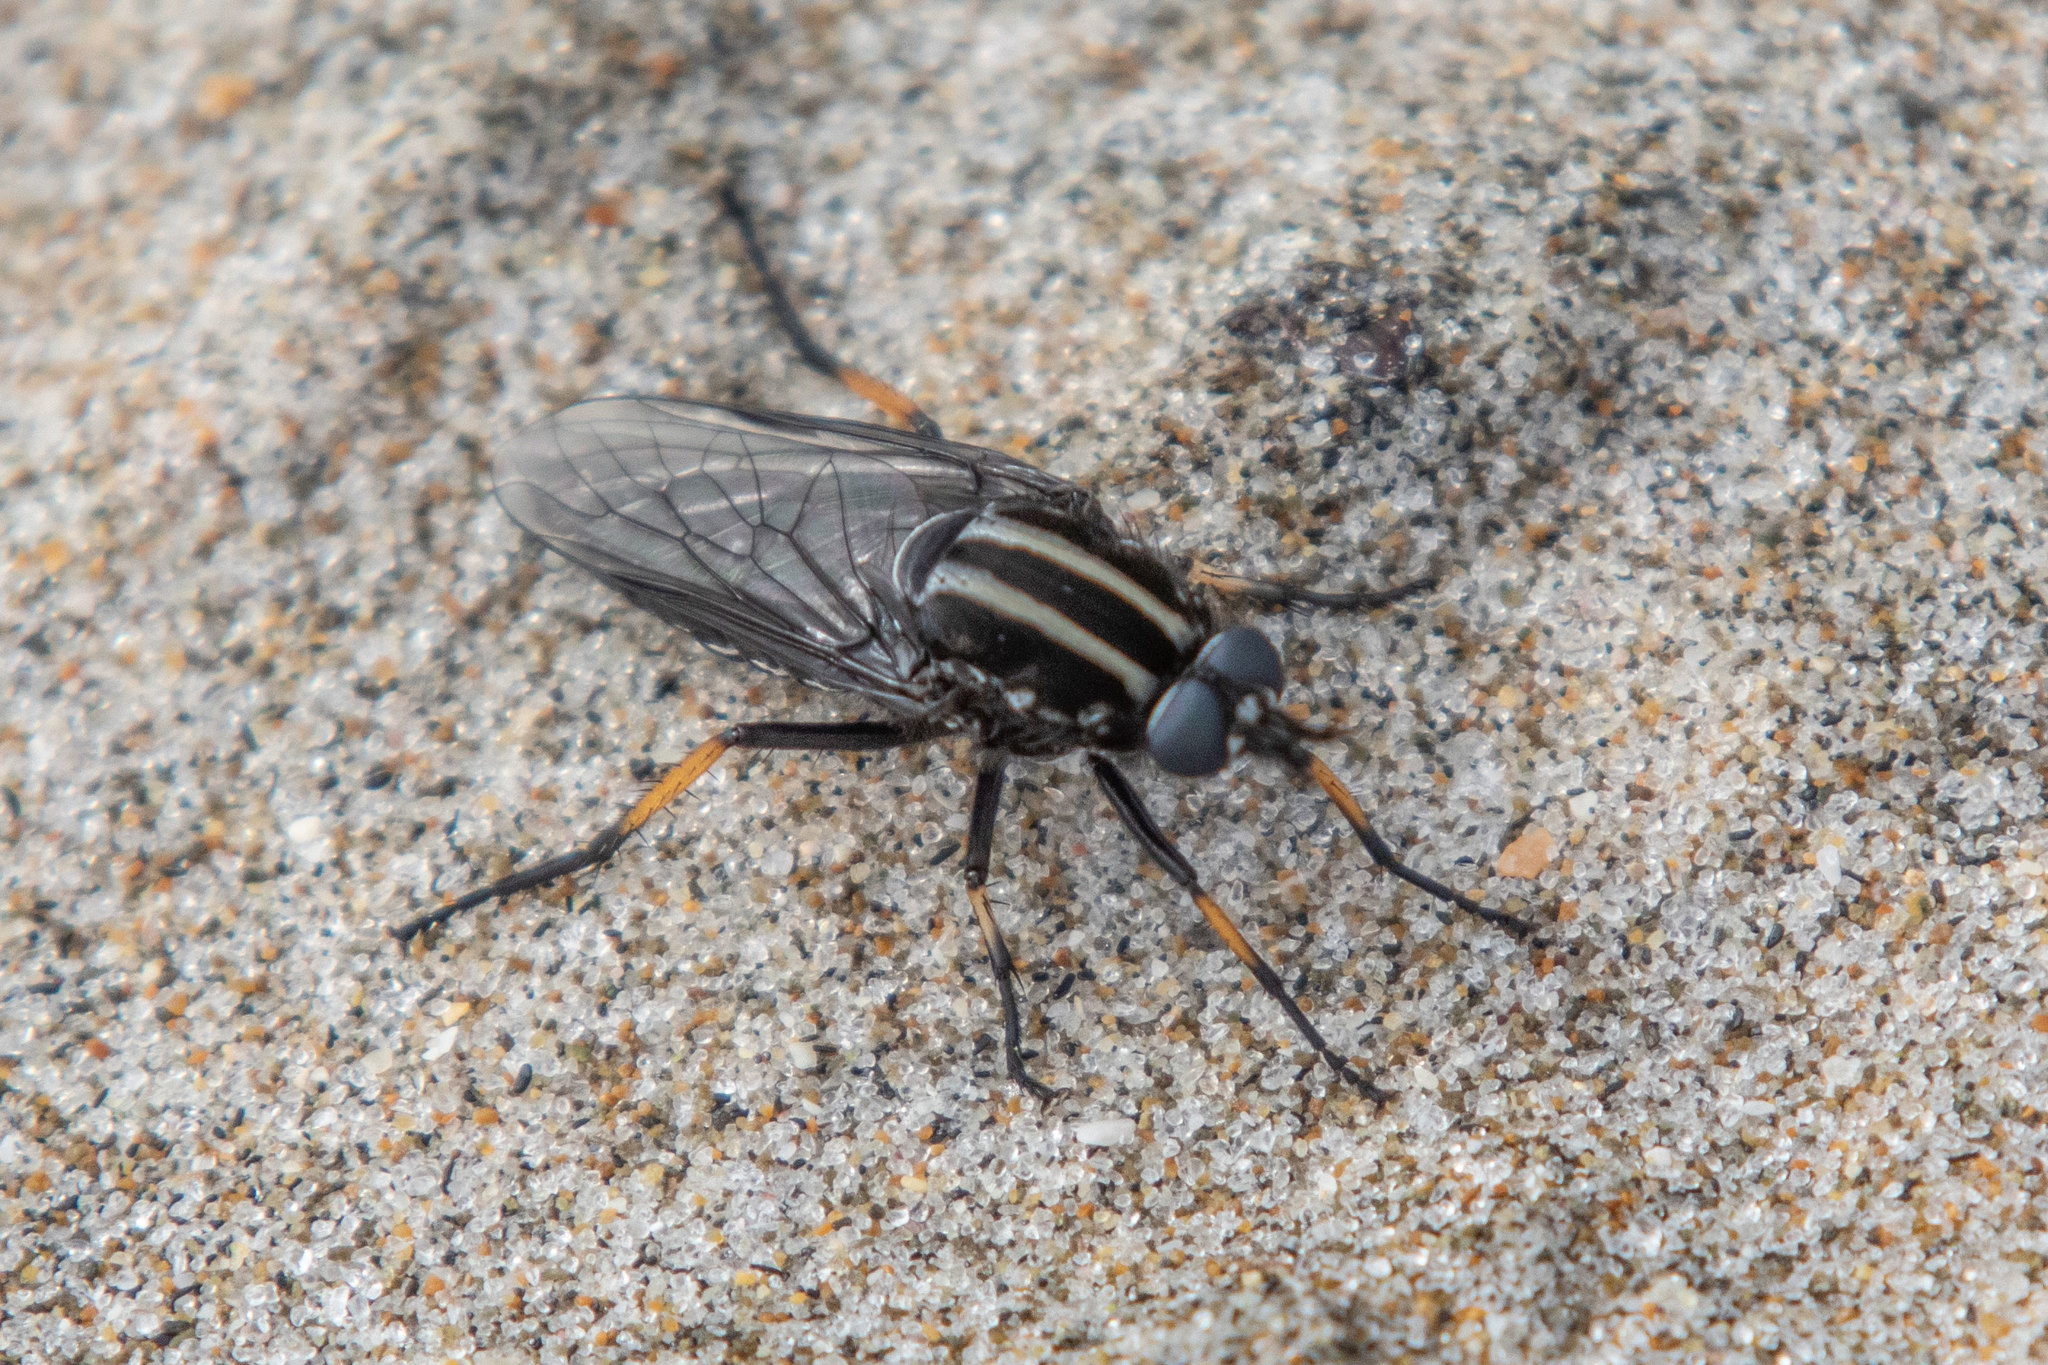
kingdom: Animalia
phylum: Arthropoda
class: Insecta
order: Diptera
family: Therevidae
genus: Megathereva
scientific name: Megathereva bilineata
